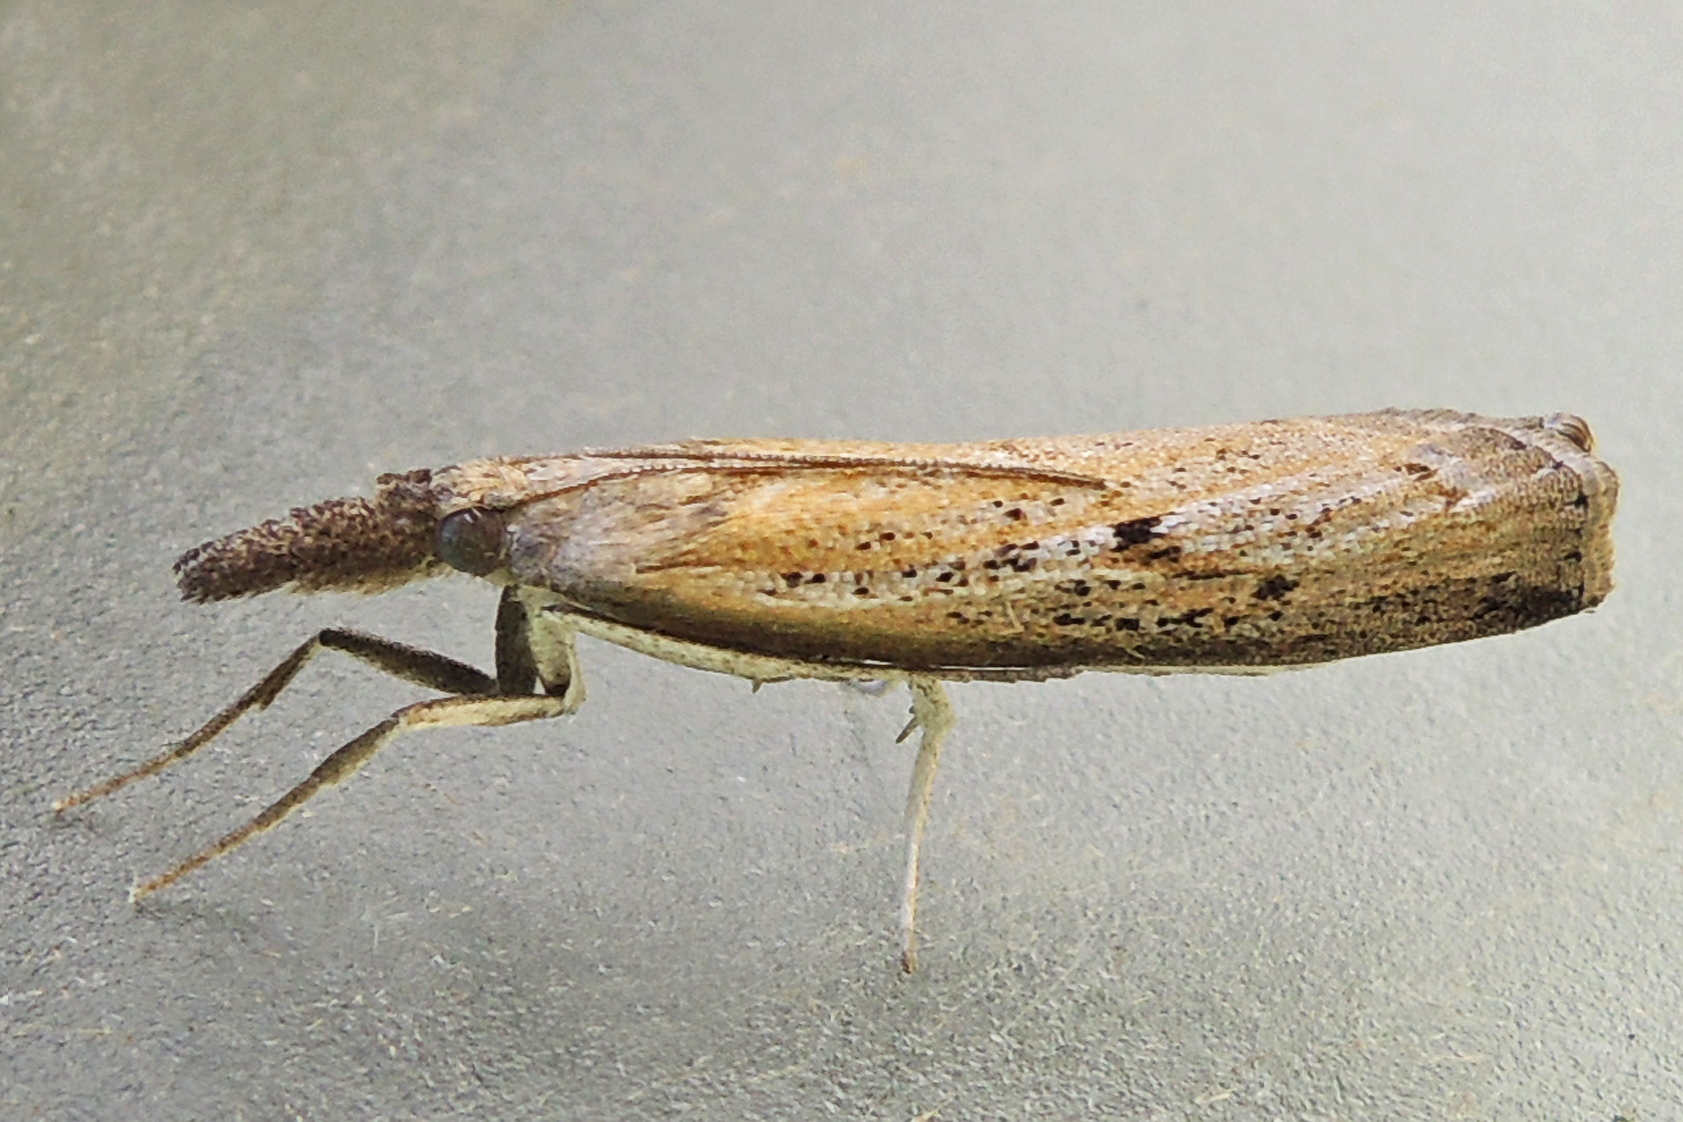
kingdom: Animalia
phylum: Arthropoda
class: Insecta
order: Lepidoptera
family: Crambidae
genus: Fissicrambus
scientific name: Fissicrambus mutabilis
